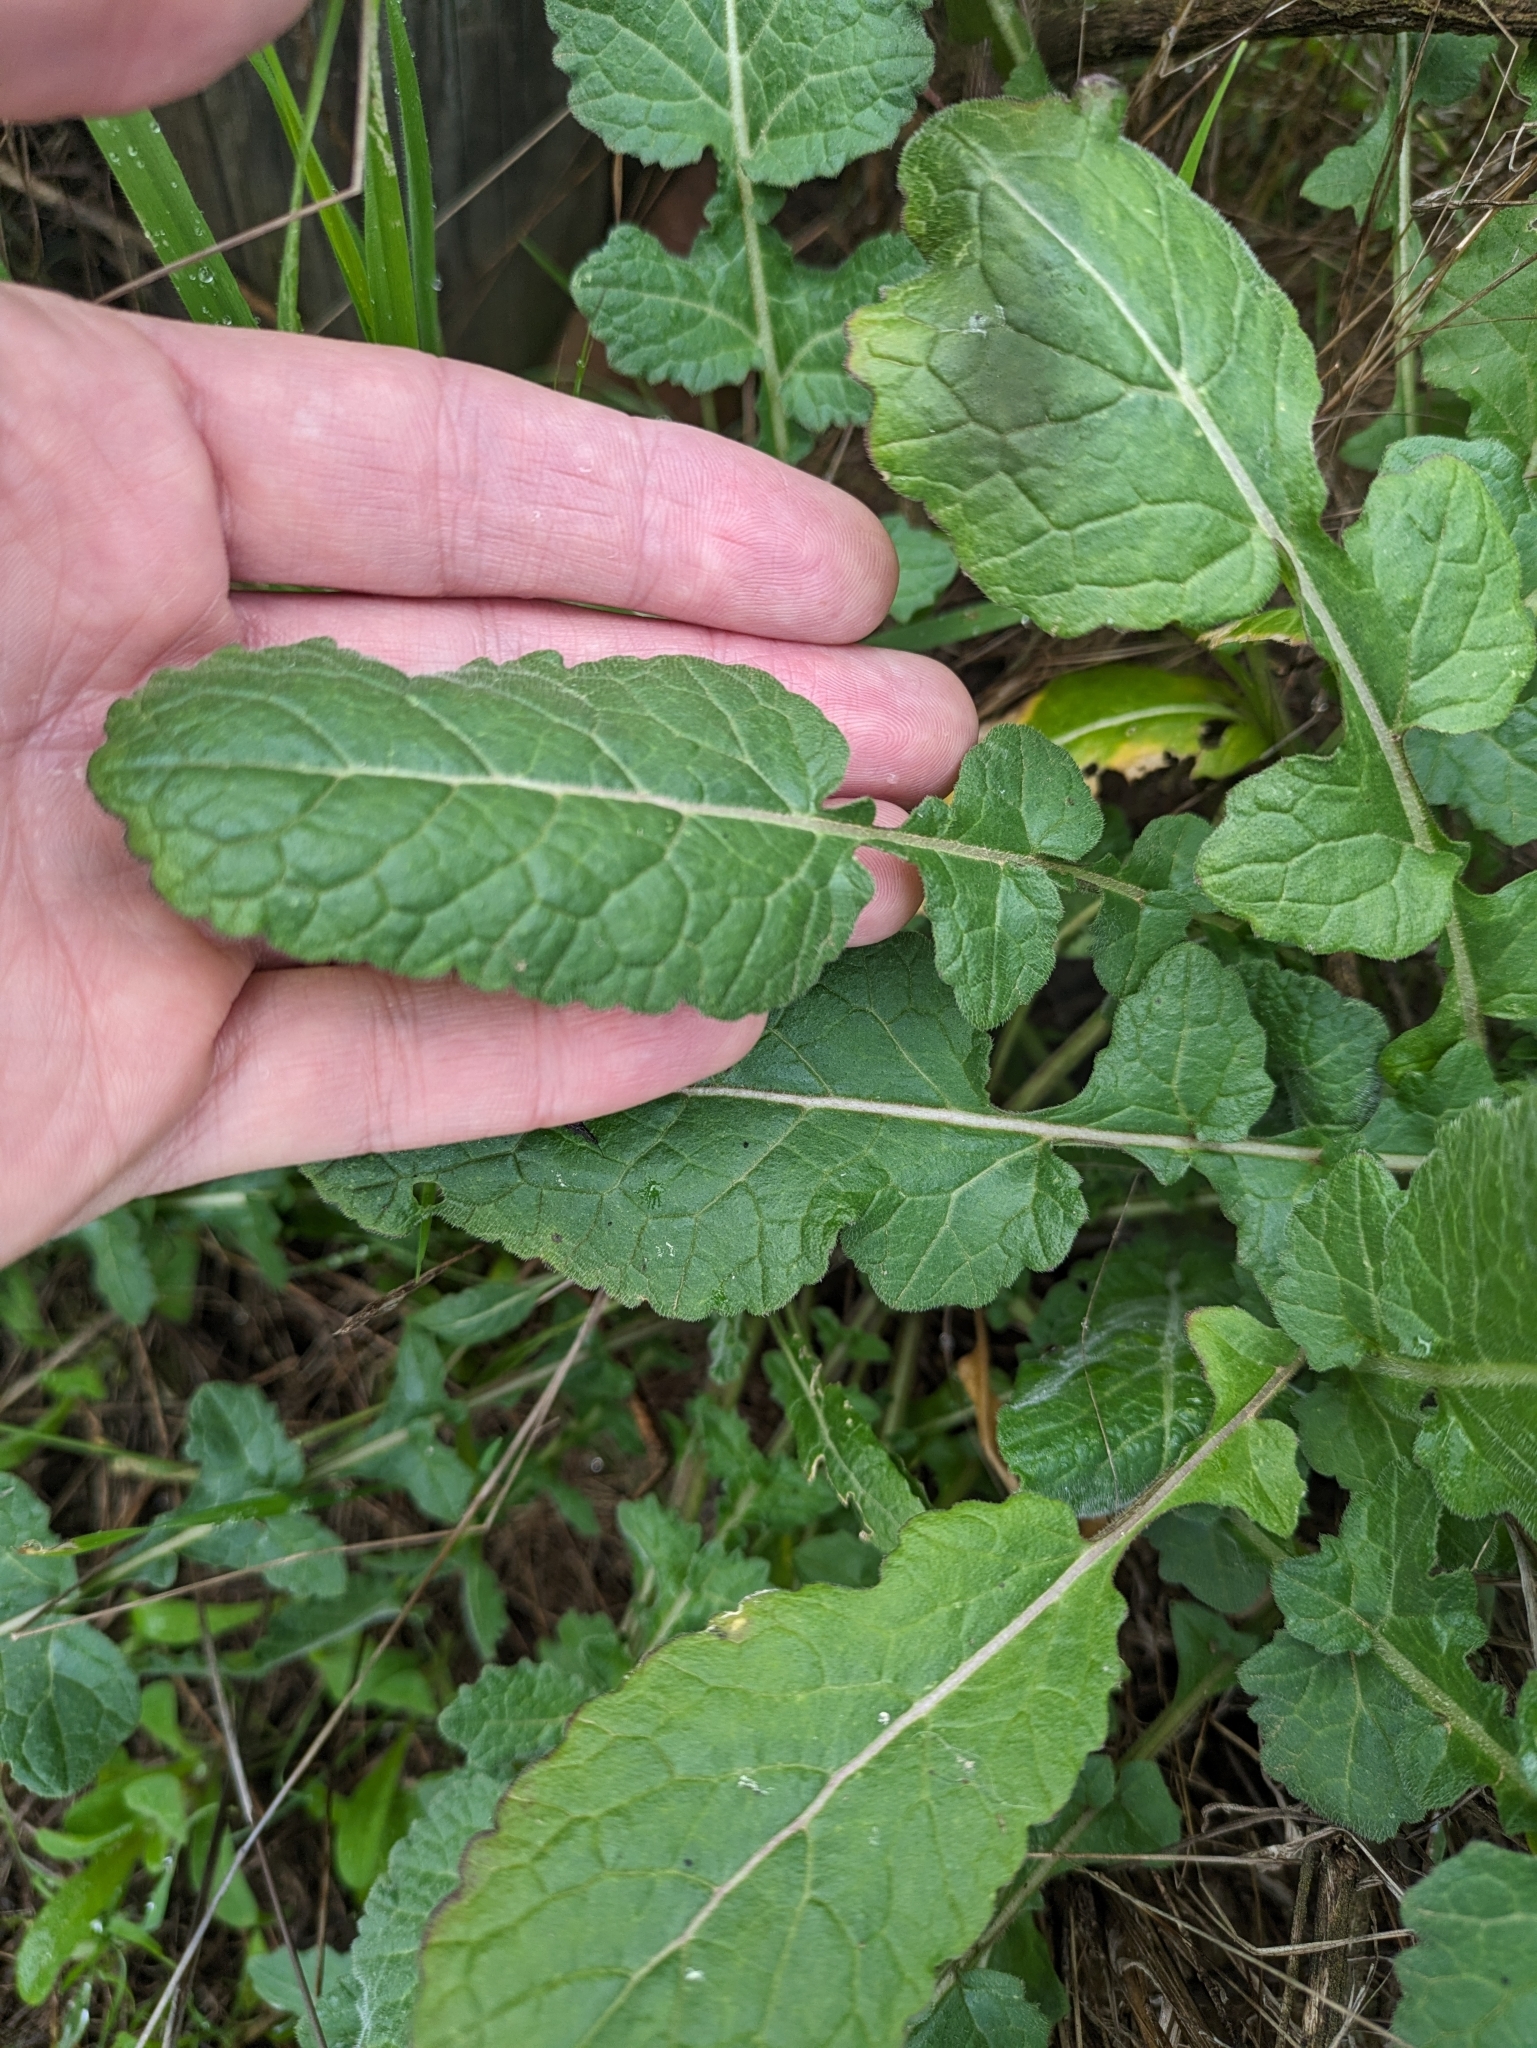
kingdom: Plantae
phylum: Tracheophyta
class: Magnoliopsida
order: Brassicales
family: Brassicaceae
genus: Hirschfeldia
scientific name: Hirschfeldia incana
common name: Hoary mustard
